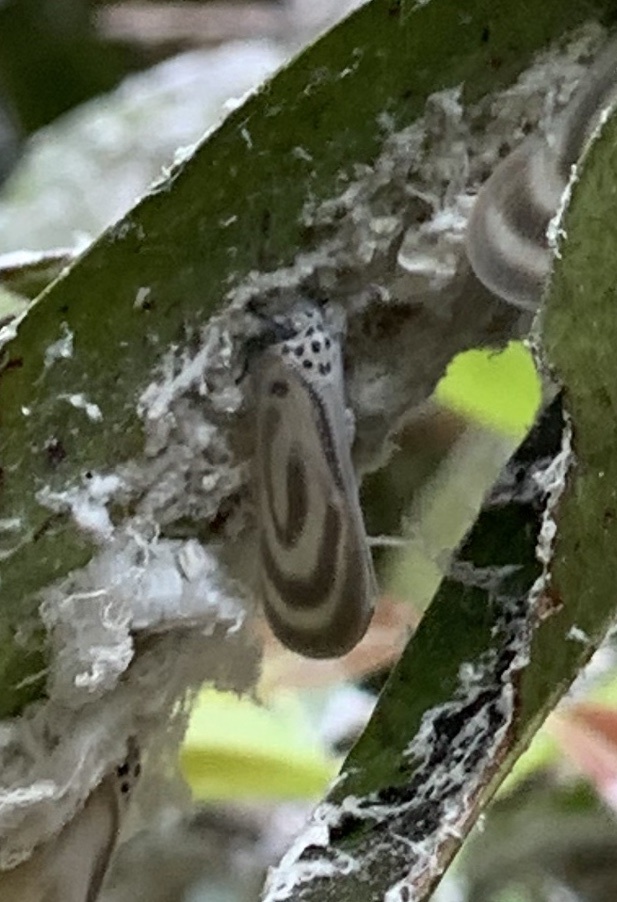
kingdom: Animalia
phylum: Arthropoda
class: Insecta
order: Hemiptera
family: Flatidae
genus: Bythopsyrna
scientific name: Bythopsyrna trichrousa
